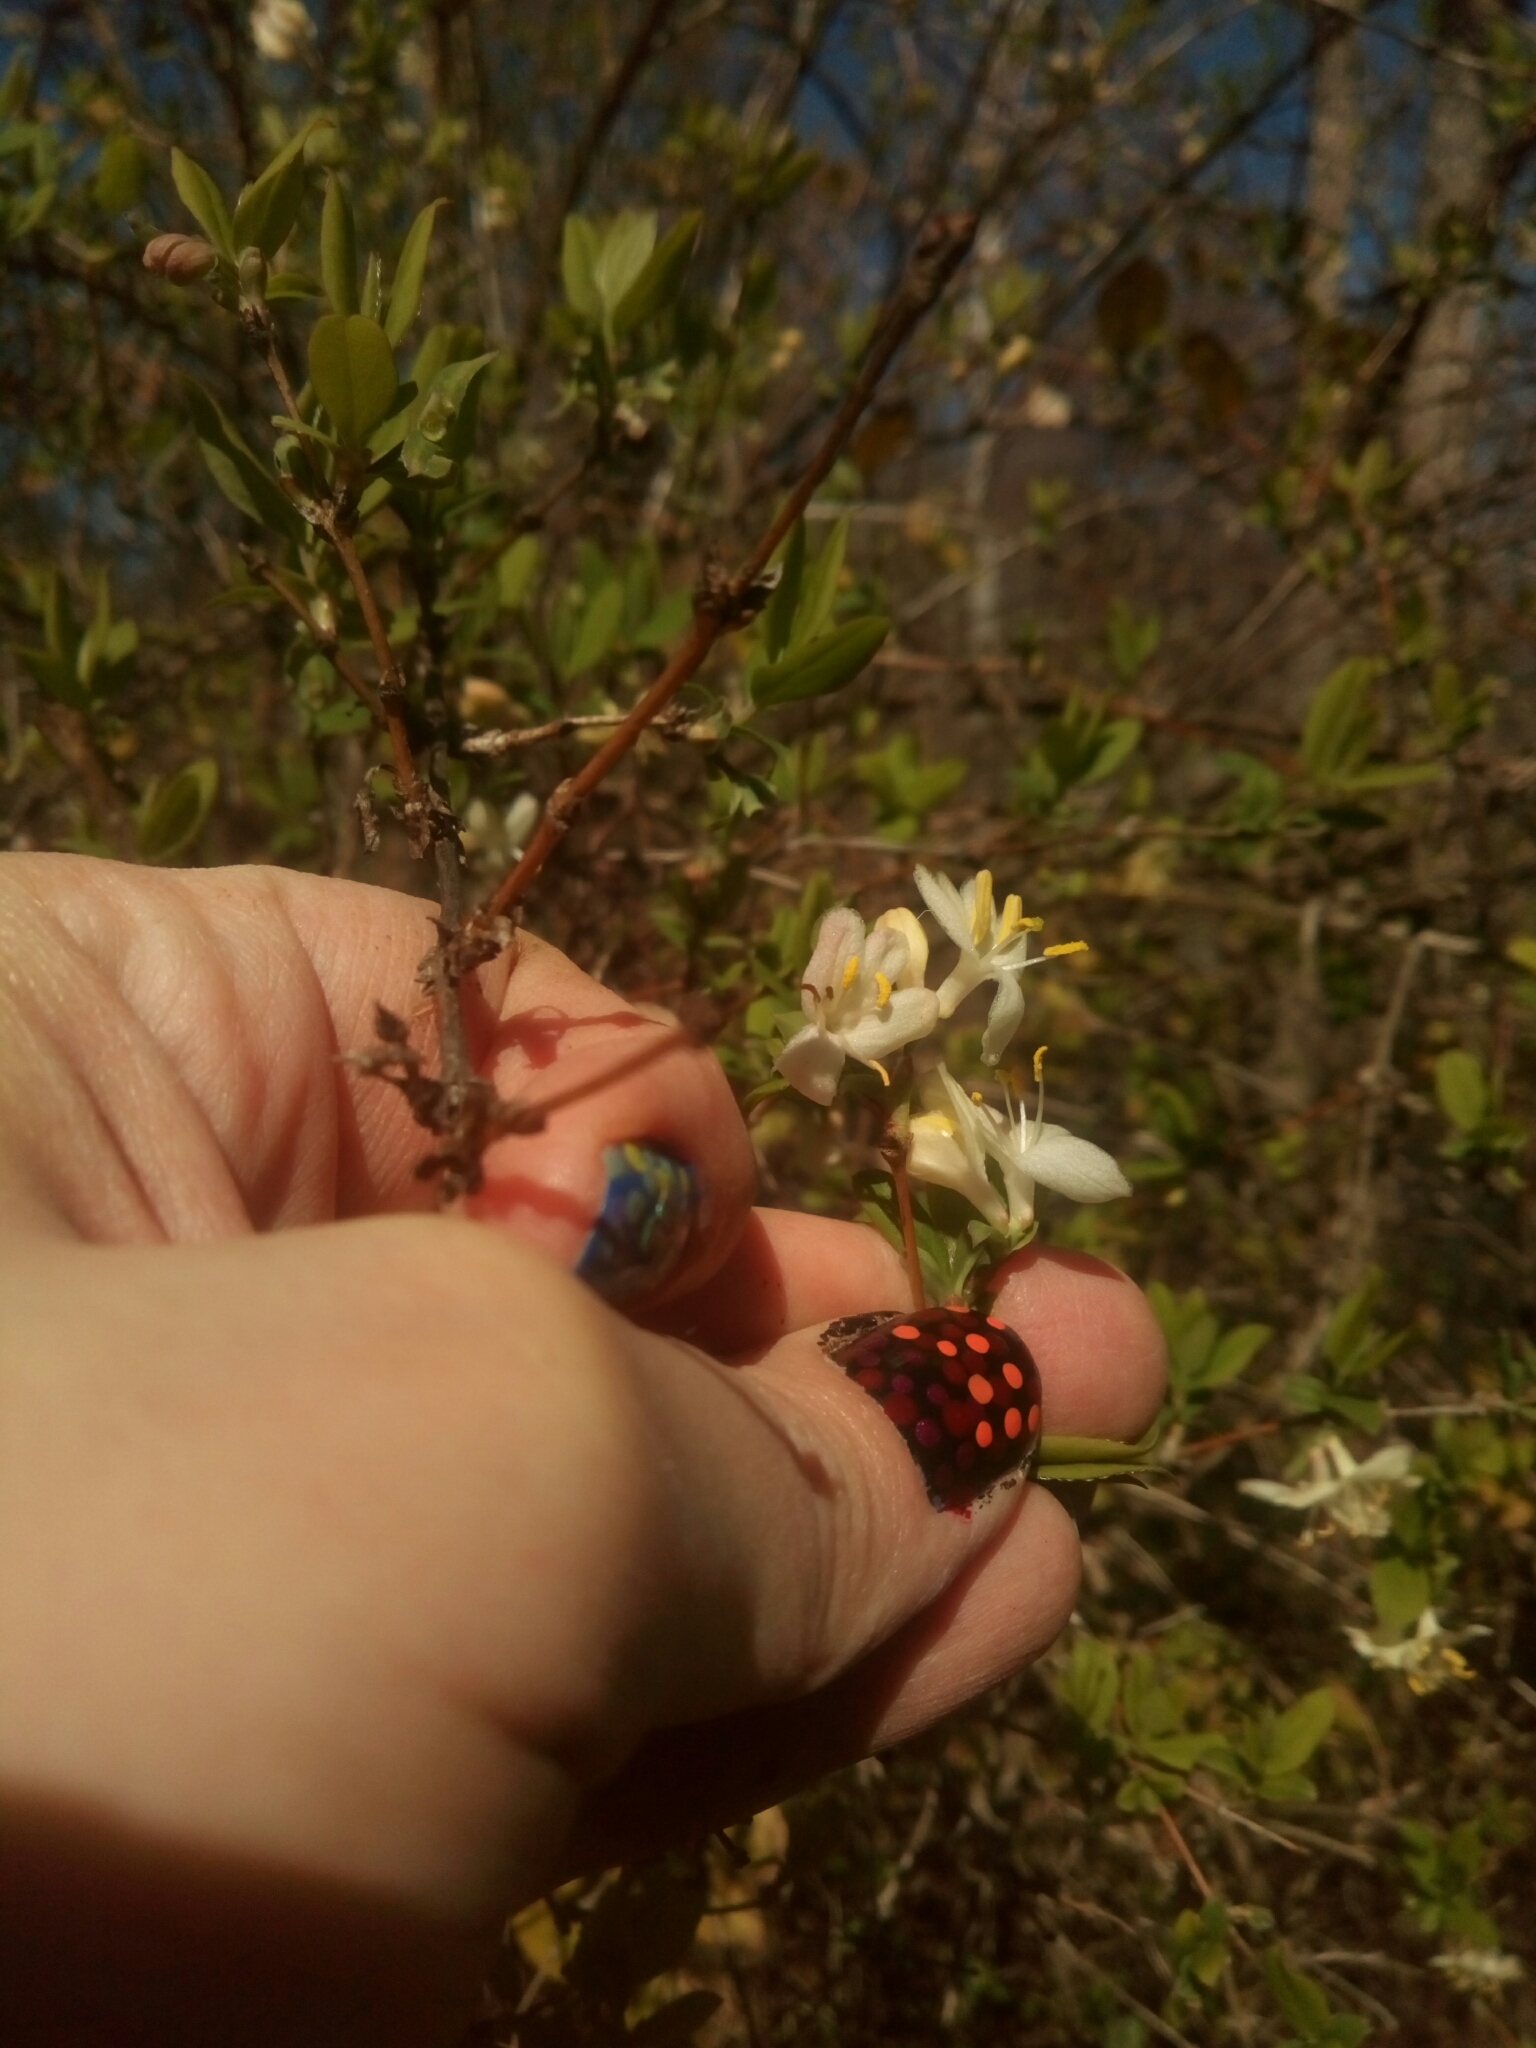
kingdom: Plantae
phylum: Tracheophyta
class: Magnoliopsida
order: Dipsacales
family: Caprifoliaceae
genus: Lonicera
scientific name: Lonicera fragrantissima
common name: Fragrant honeysuckle
